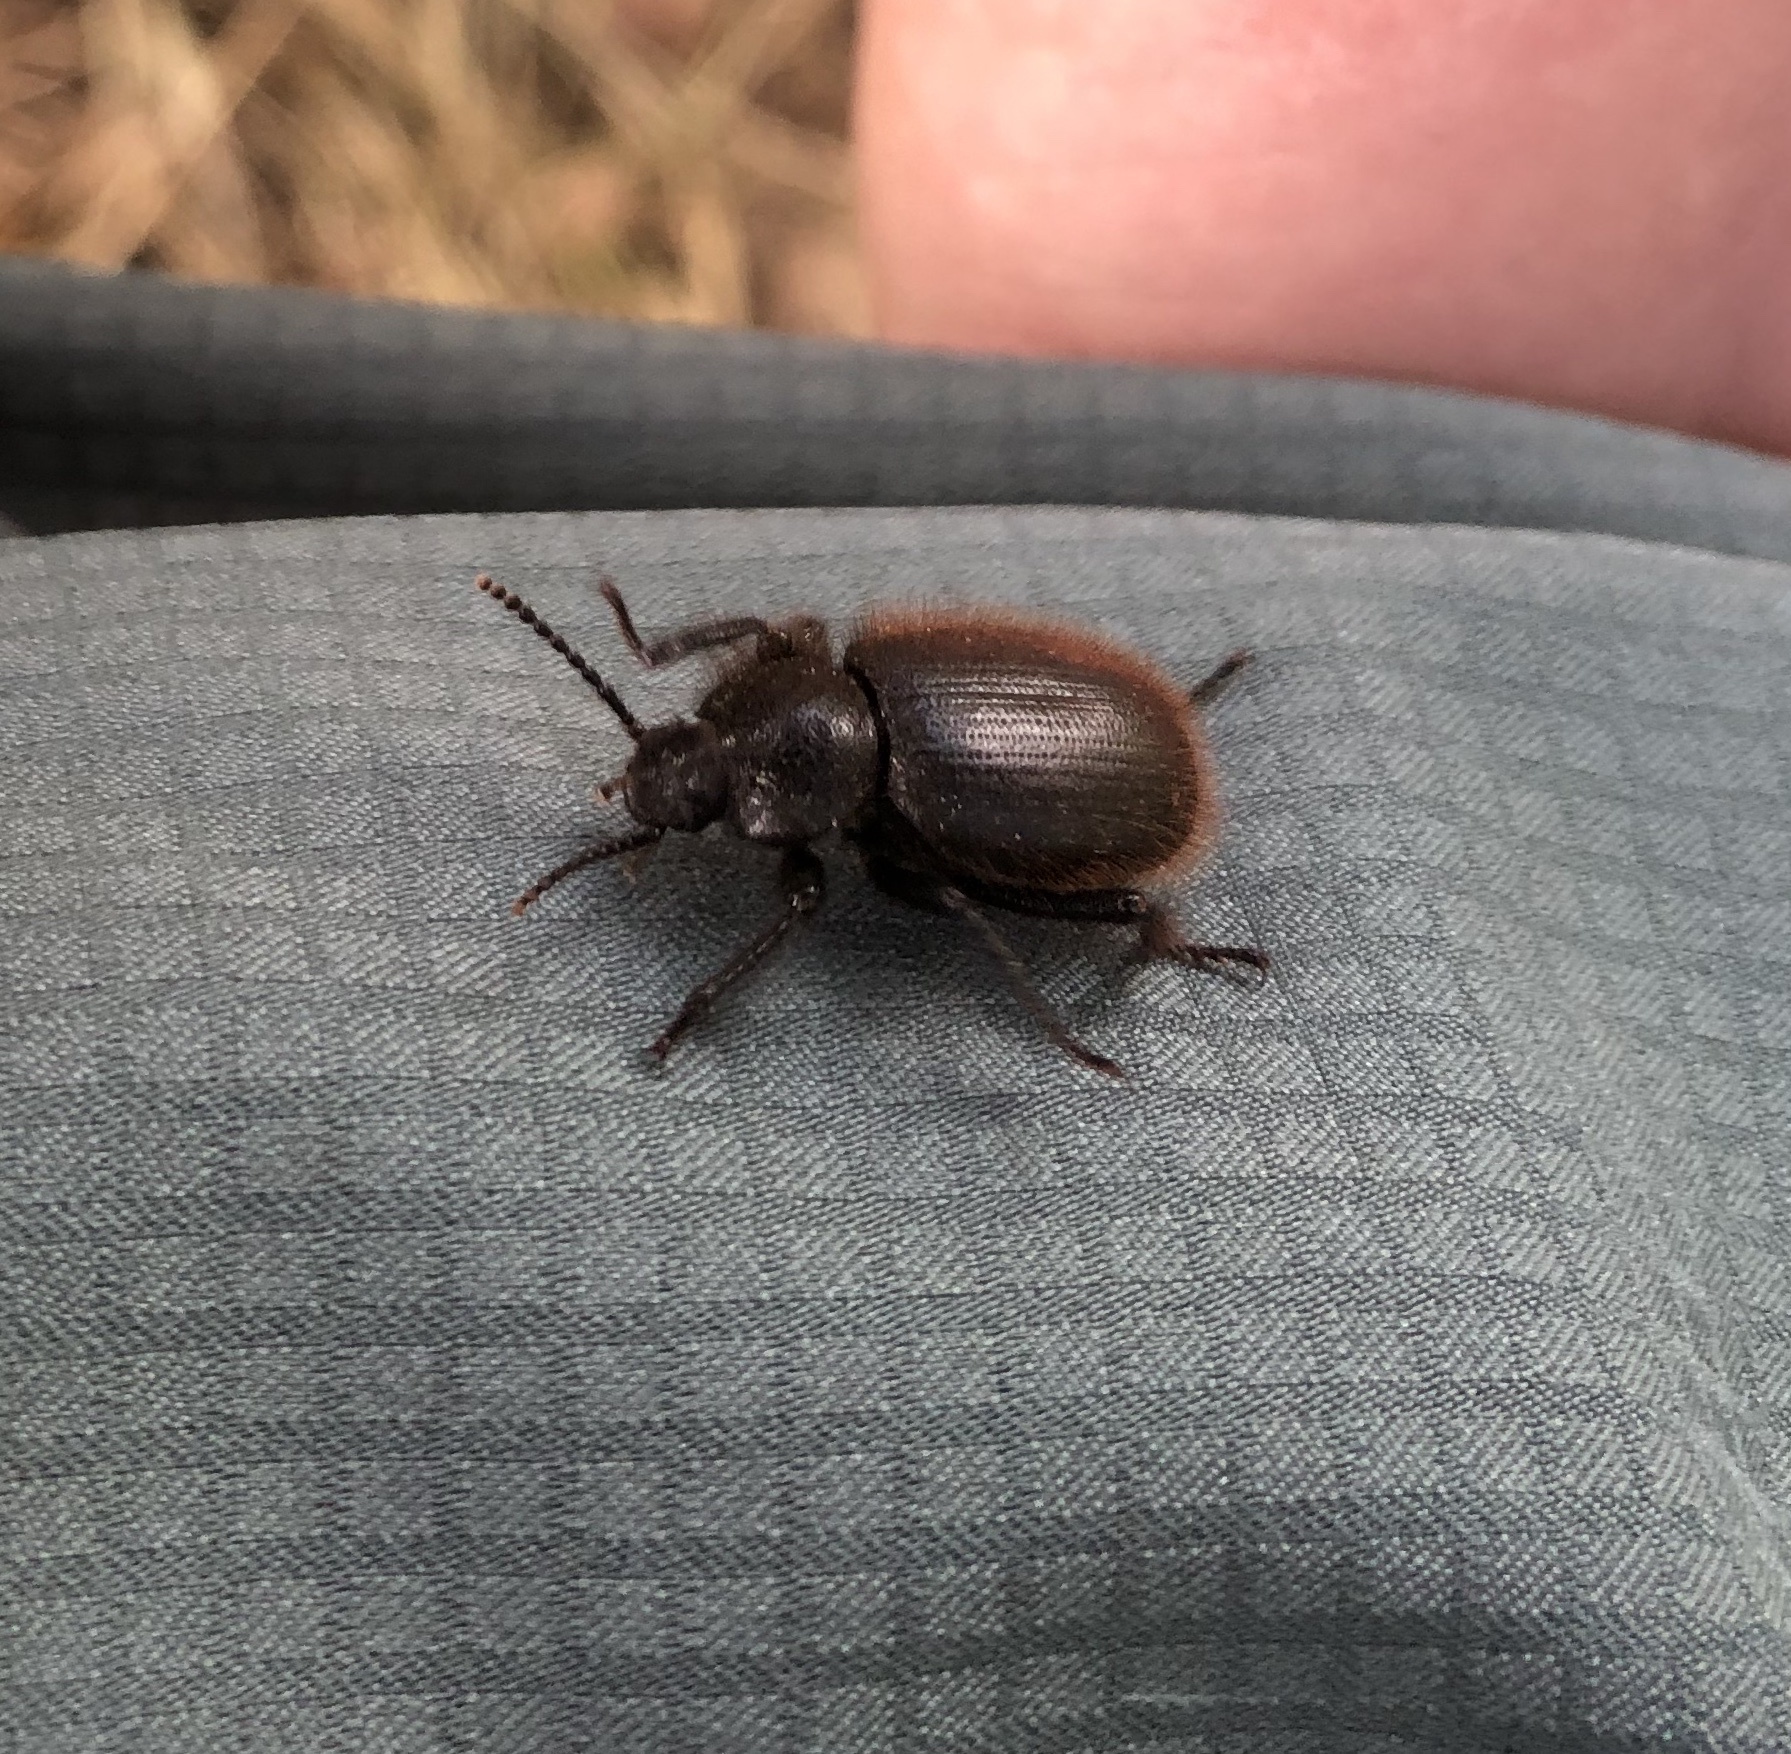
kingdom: Animalia
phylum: Arthropoda
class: Insecta
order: Coleoptera
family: Tenebrionidae
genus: Eleodes
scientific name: Eleodes osculans
